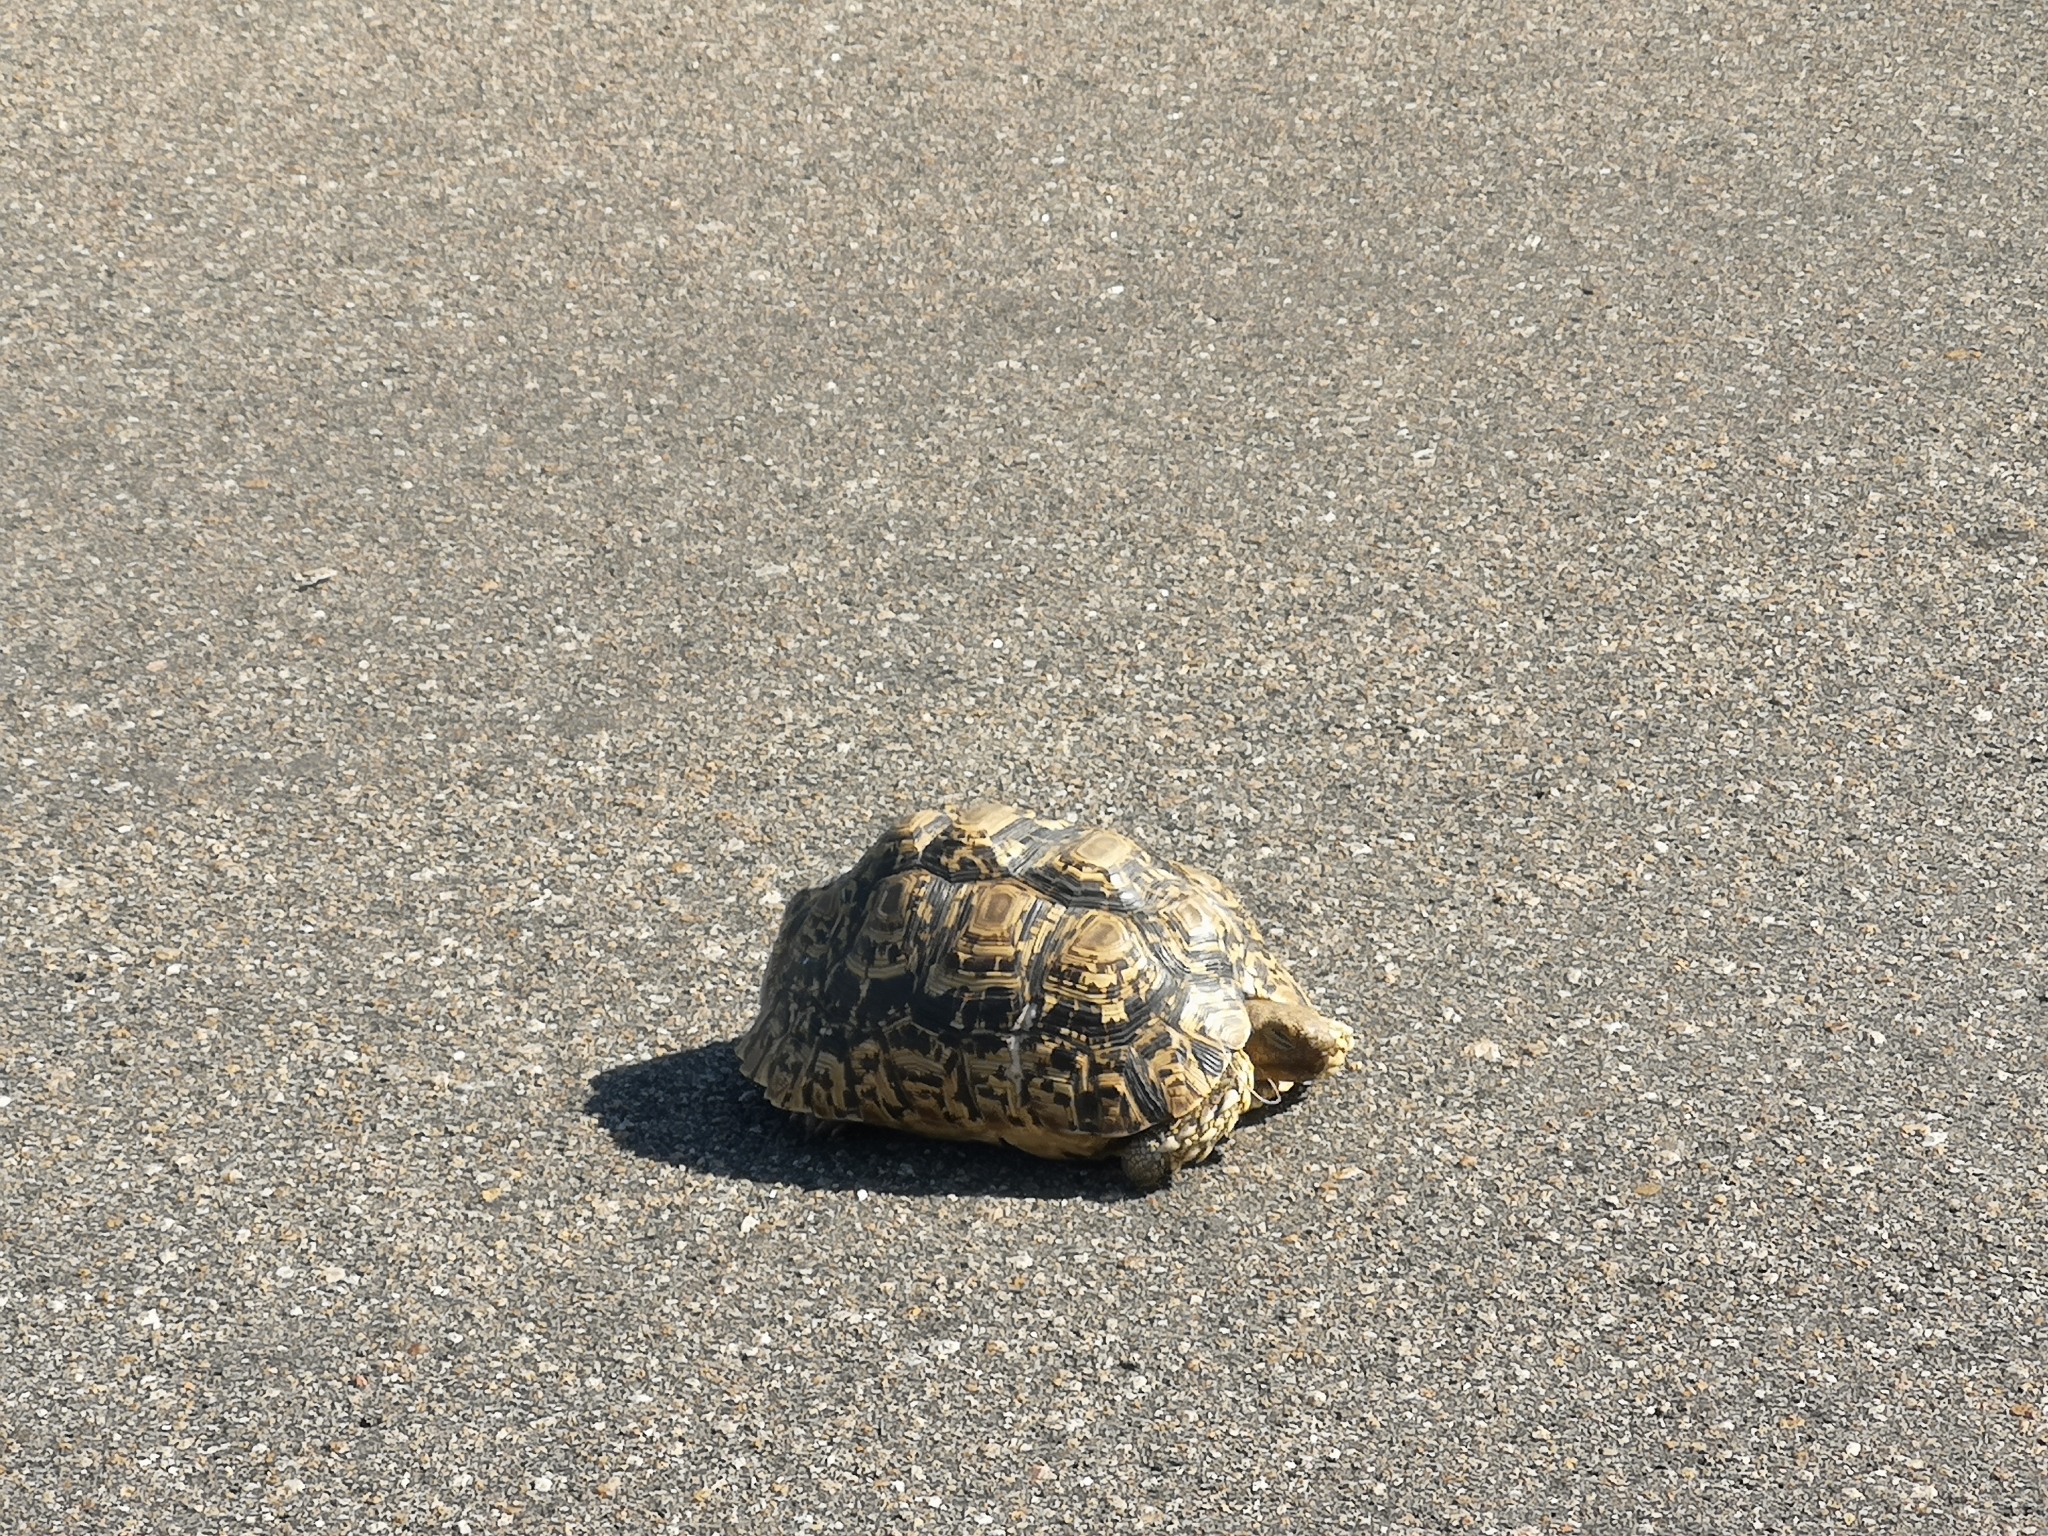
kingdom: Animalia
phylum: Chordata
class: Testudines
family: Testudinidae
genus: Stigmochelys
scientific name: Stigmochelys pardalis
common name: Leopard tortoise
